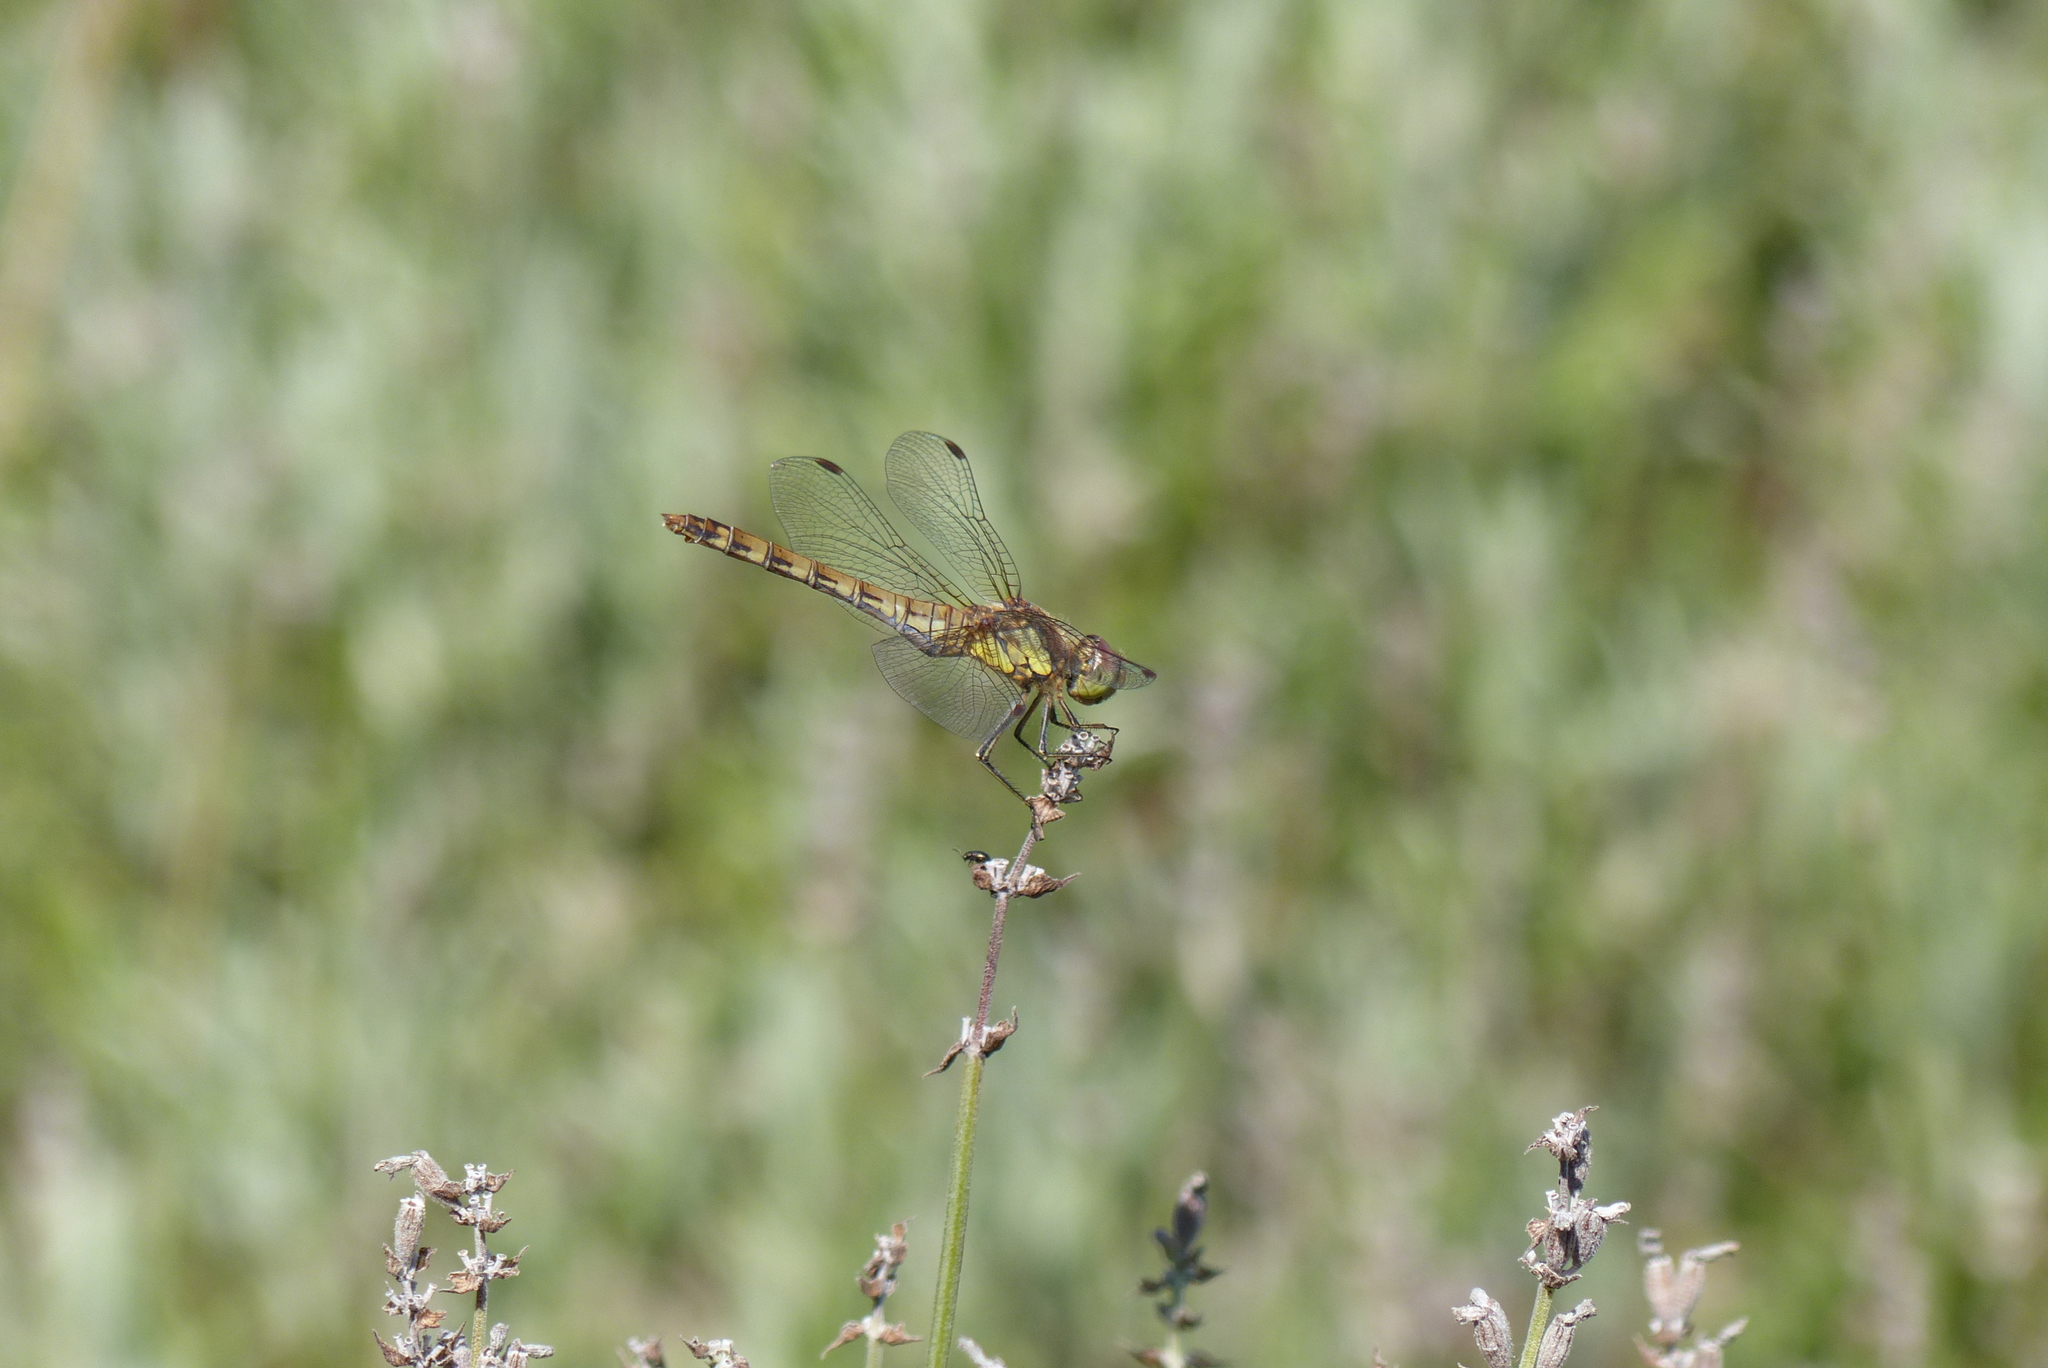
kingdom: Animalia
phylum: Arthropoda
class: Insecta
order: Odonata
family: Libellulidae
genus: Sympetrum
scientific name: Sympetrum striolatum
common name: Common darter
